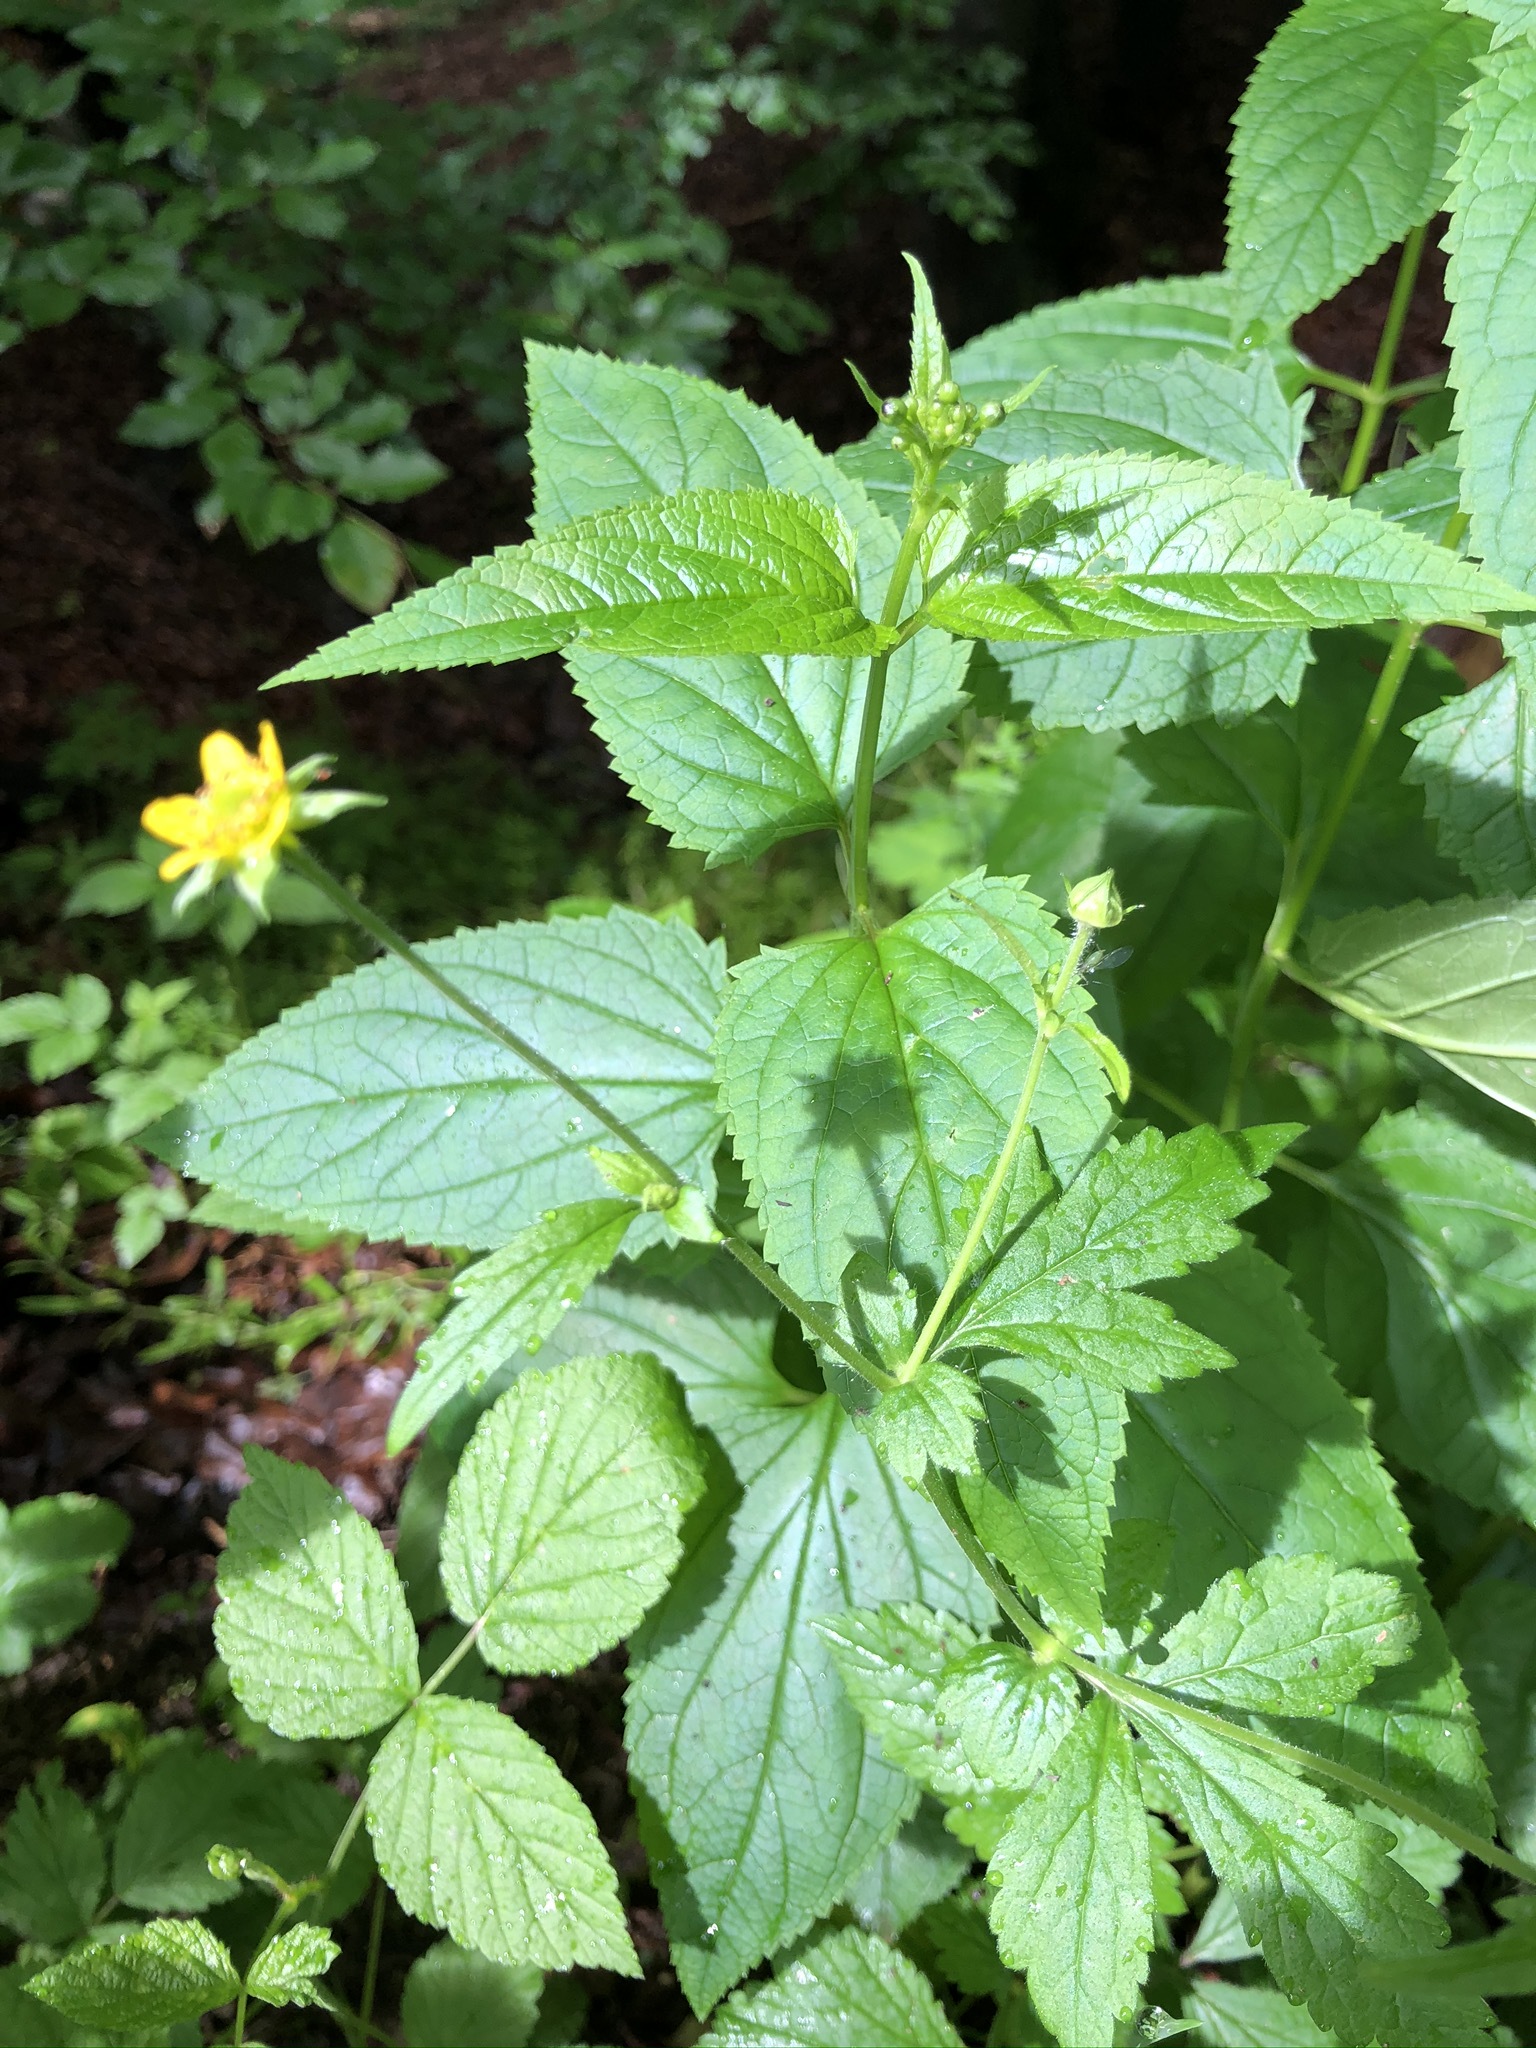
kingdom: Plantae
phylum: Tracheophyta
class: Magnoliopsida
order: Rosales
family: Rosaceae
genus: Geum
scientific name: Geum urbanum
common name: Wood avens
